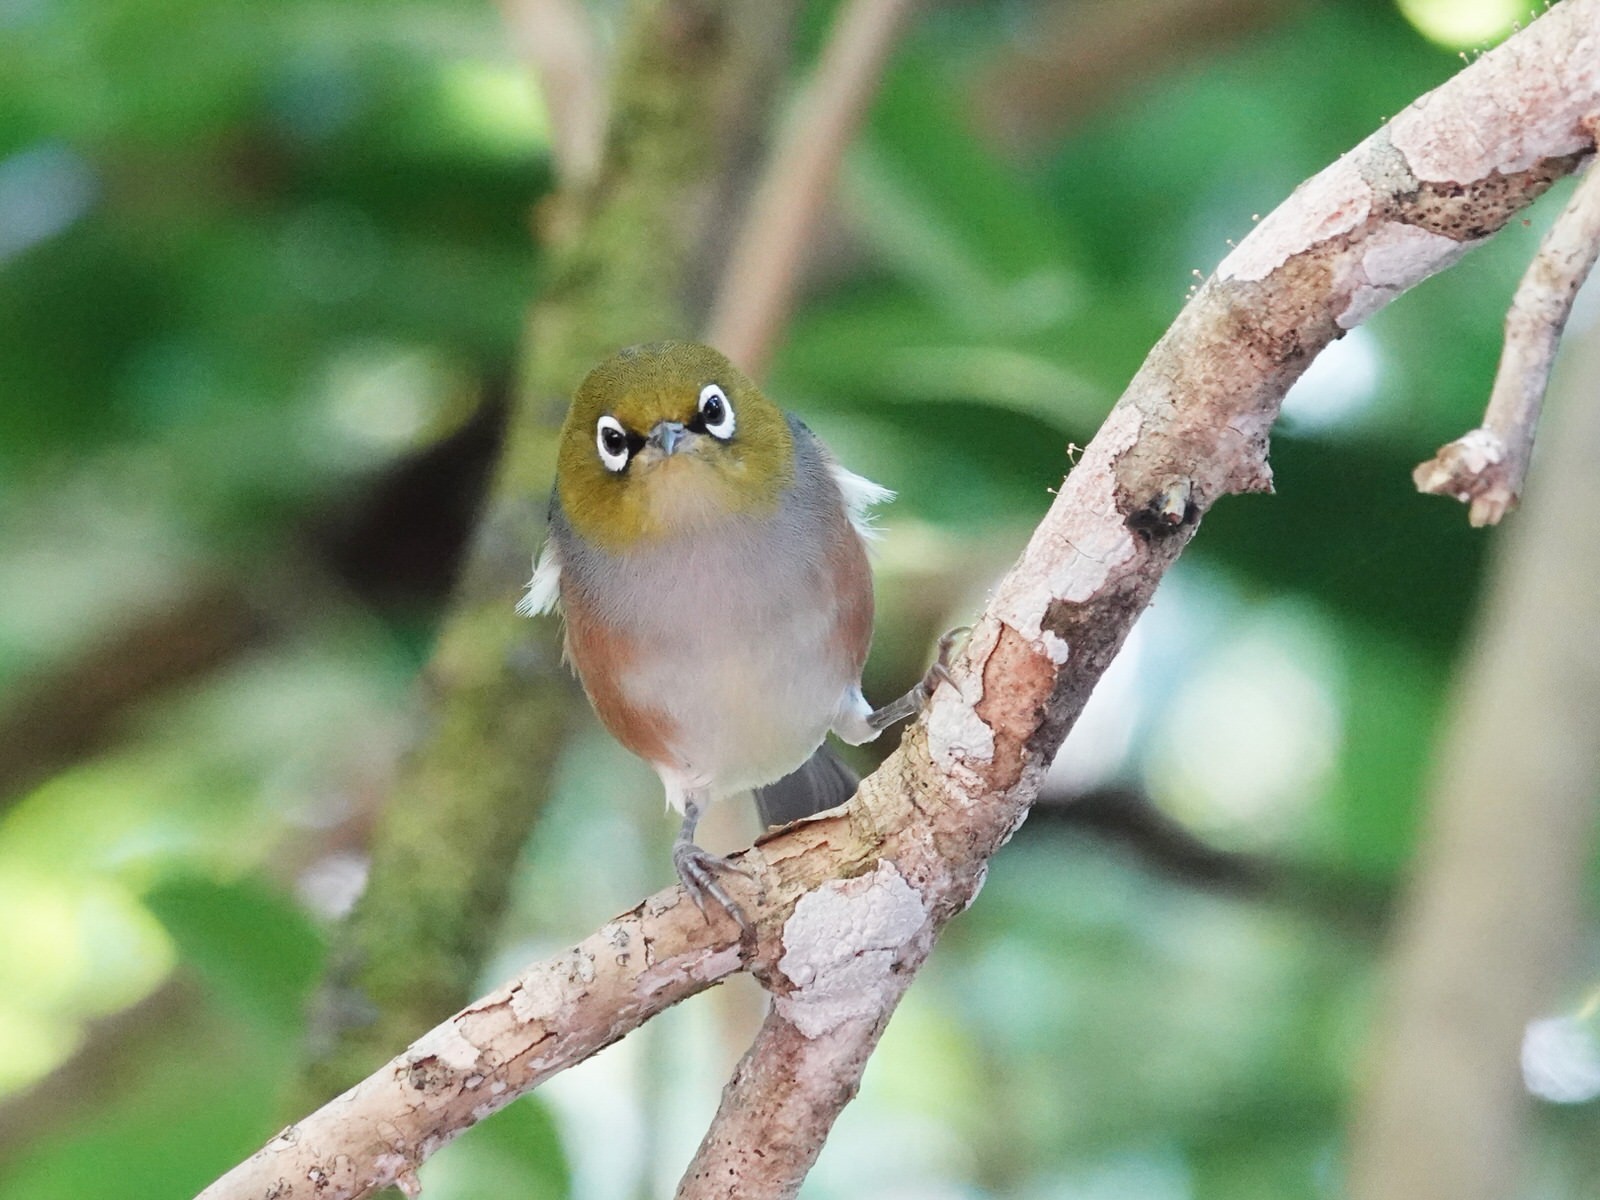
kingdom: Animalia
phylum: Chordata
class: Aves
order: Passeriformes
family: Zosteropidae
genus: Zosterops
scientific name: Zosterops lateralis
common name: Silvereye
